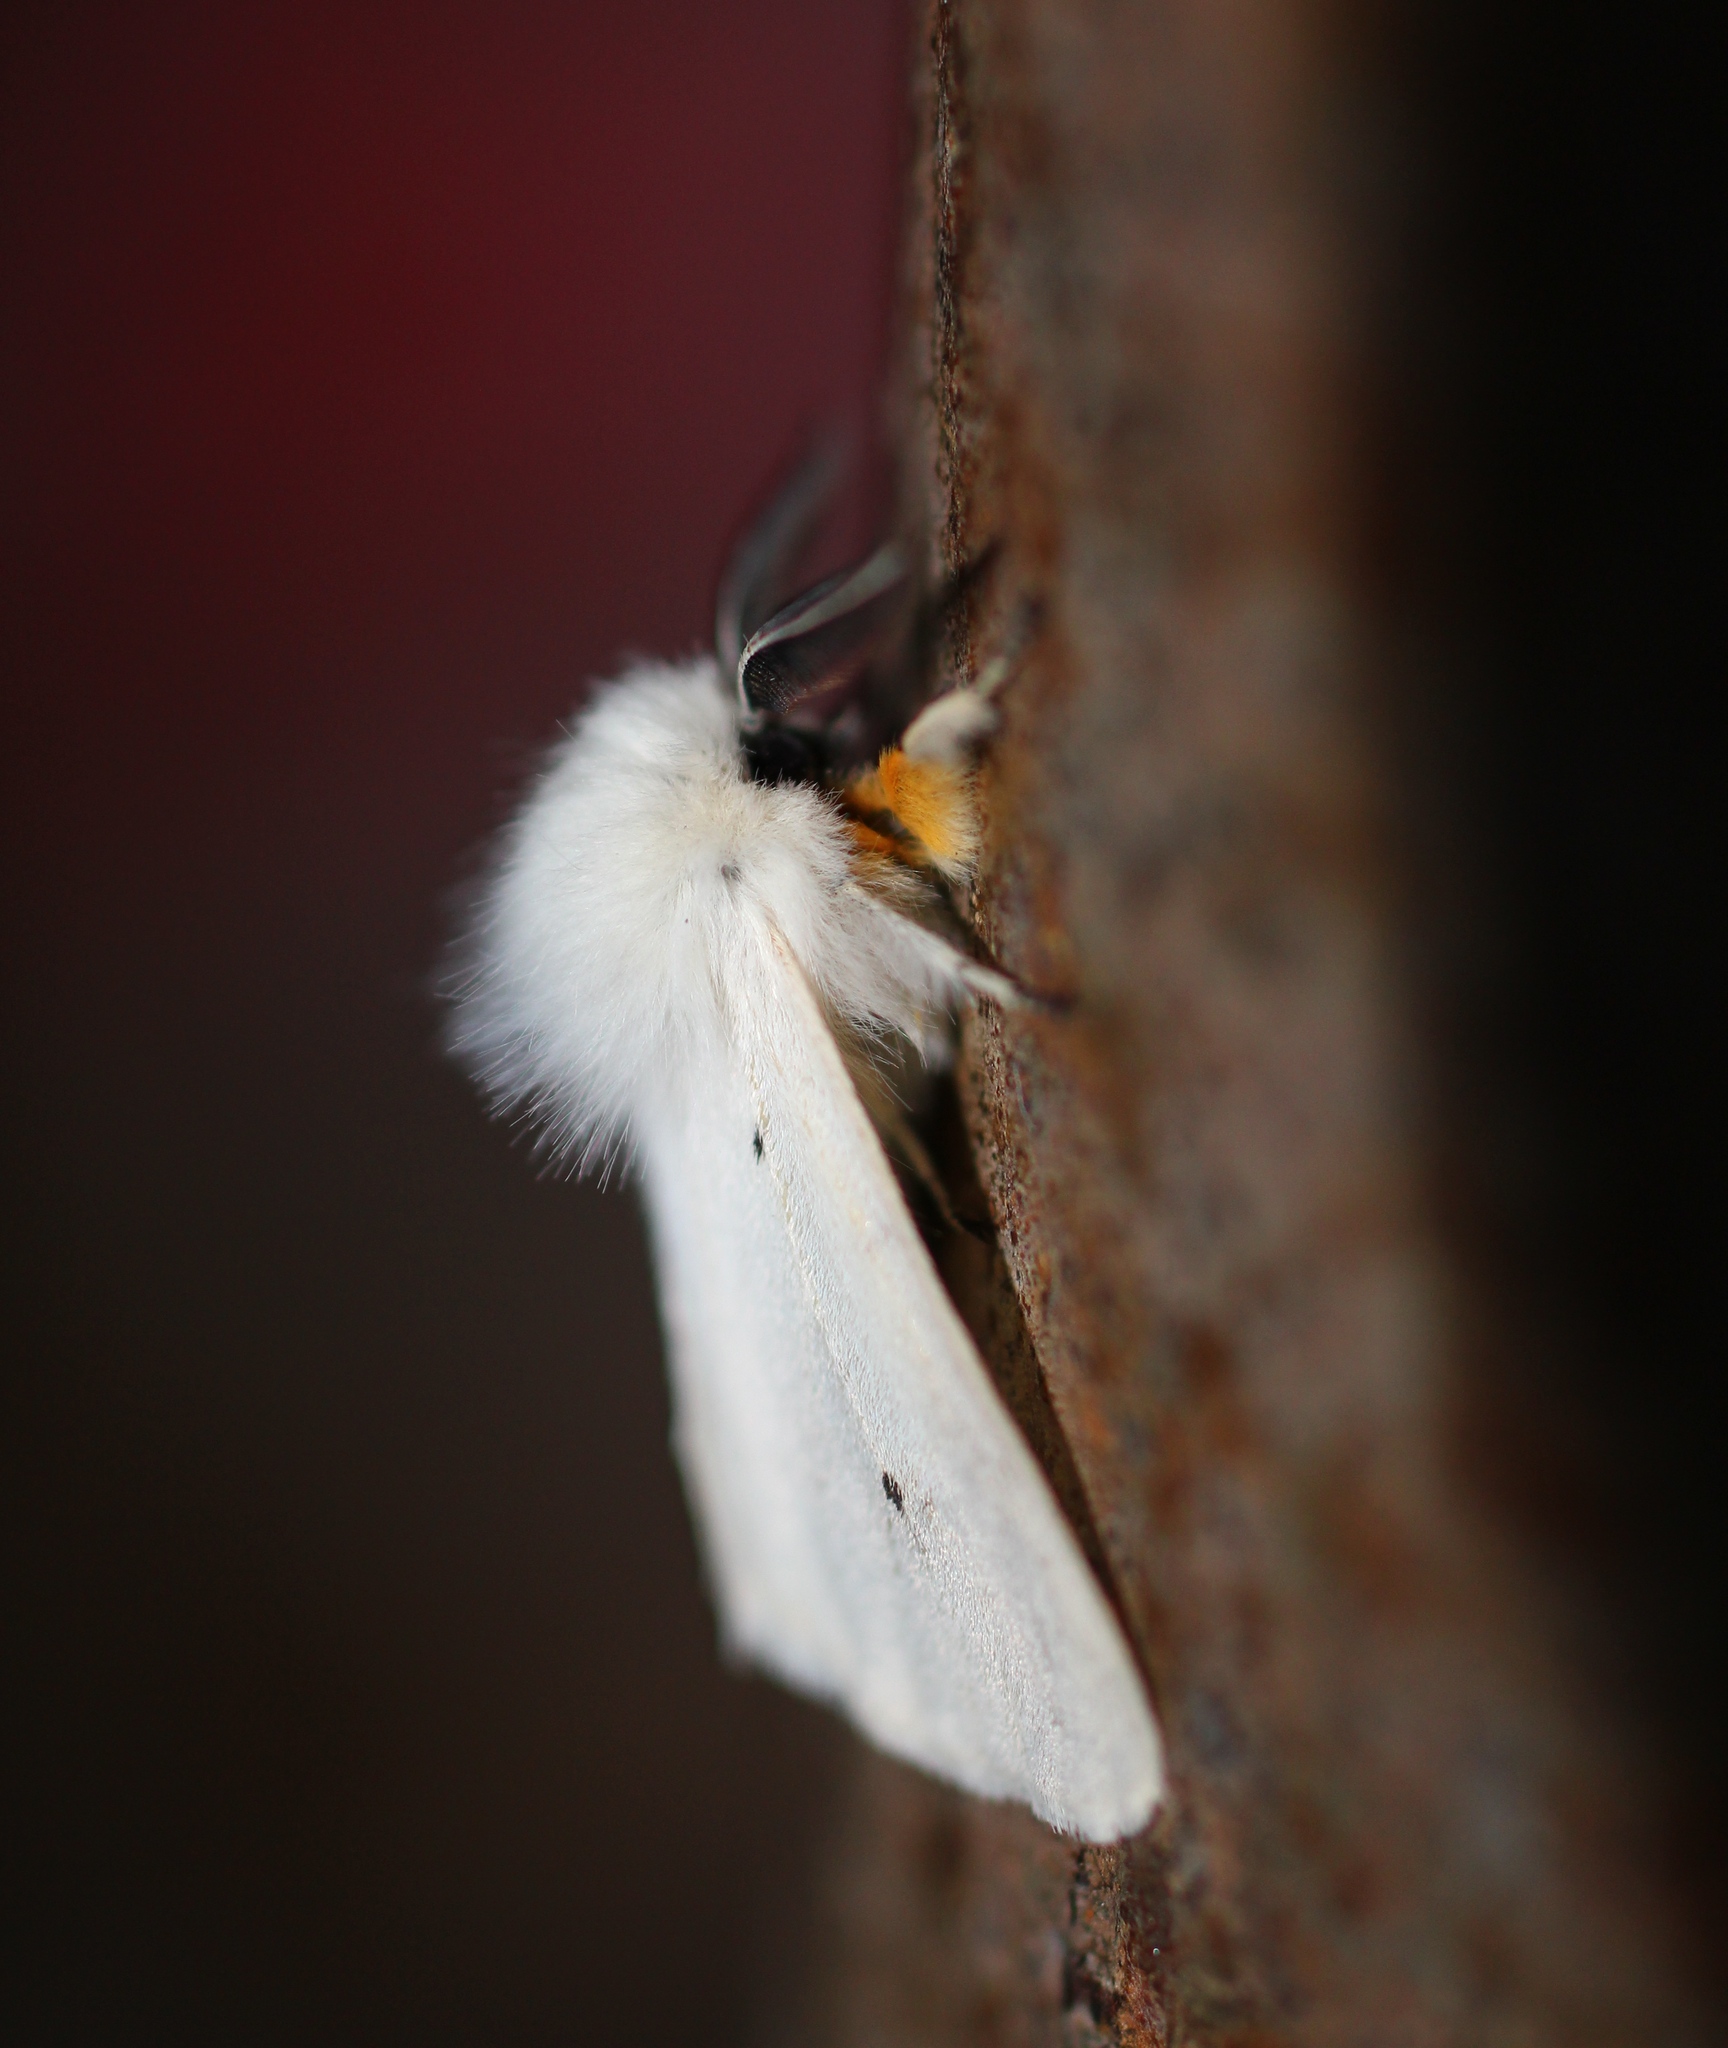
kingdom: Animalia
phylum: Arthropoda
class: Insecta
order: Lepidoptera
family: Erebidae
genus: Diaphora
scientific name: Diaphora mendica
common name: Muslin moth
